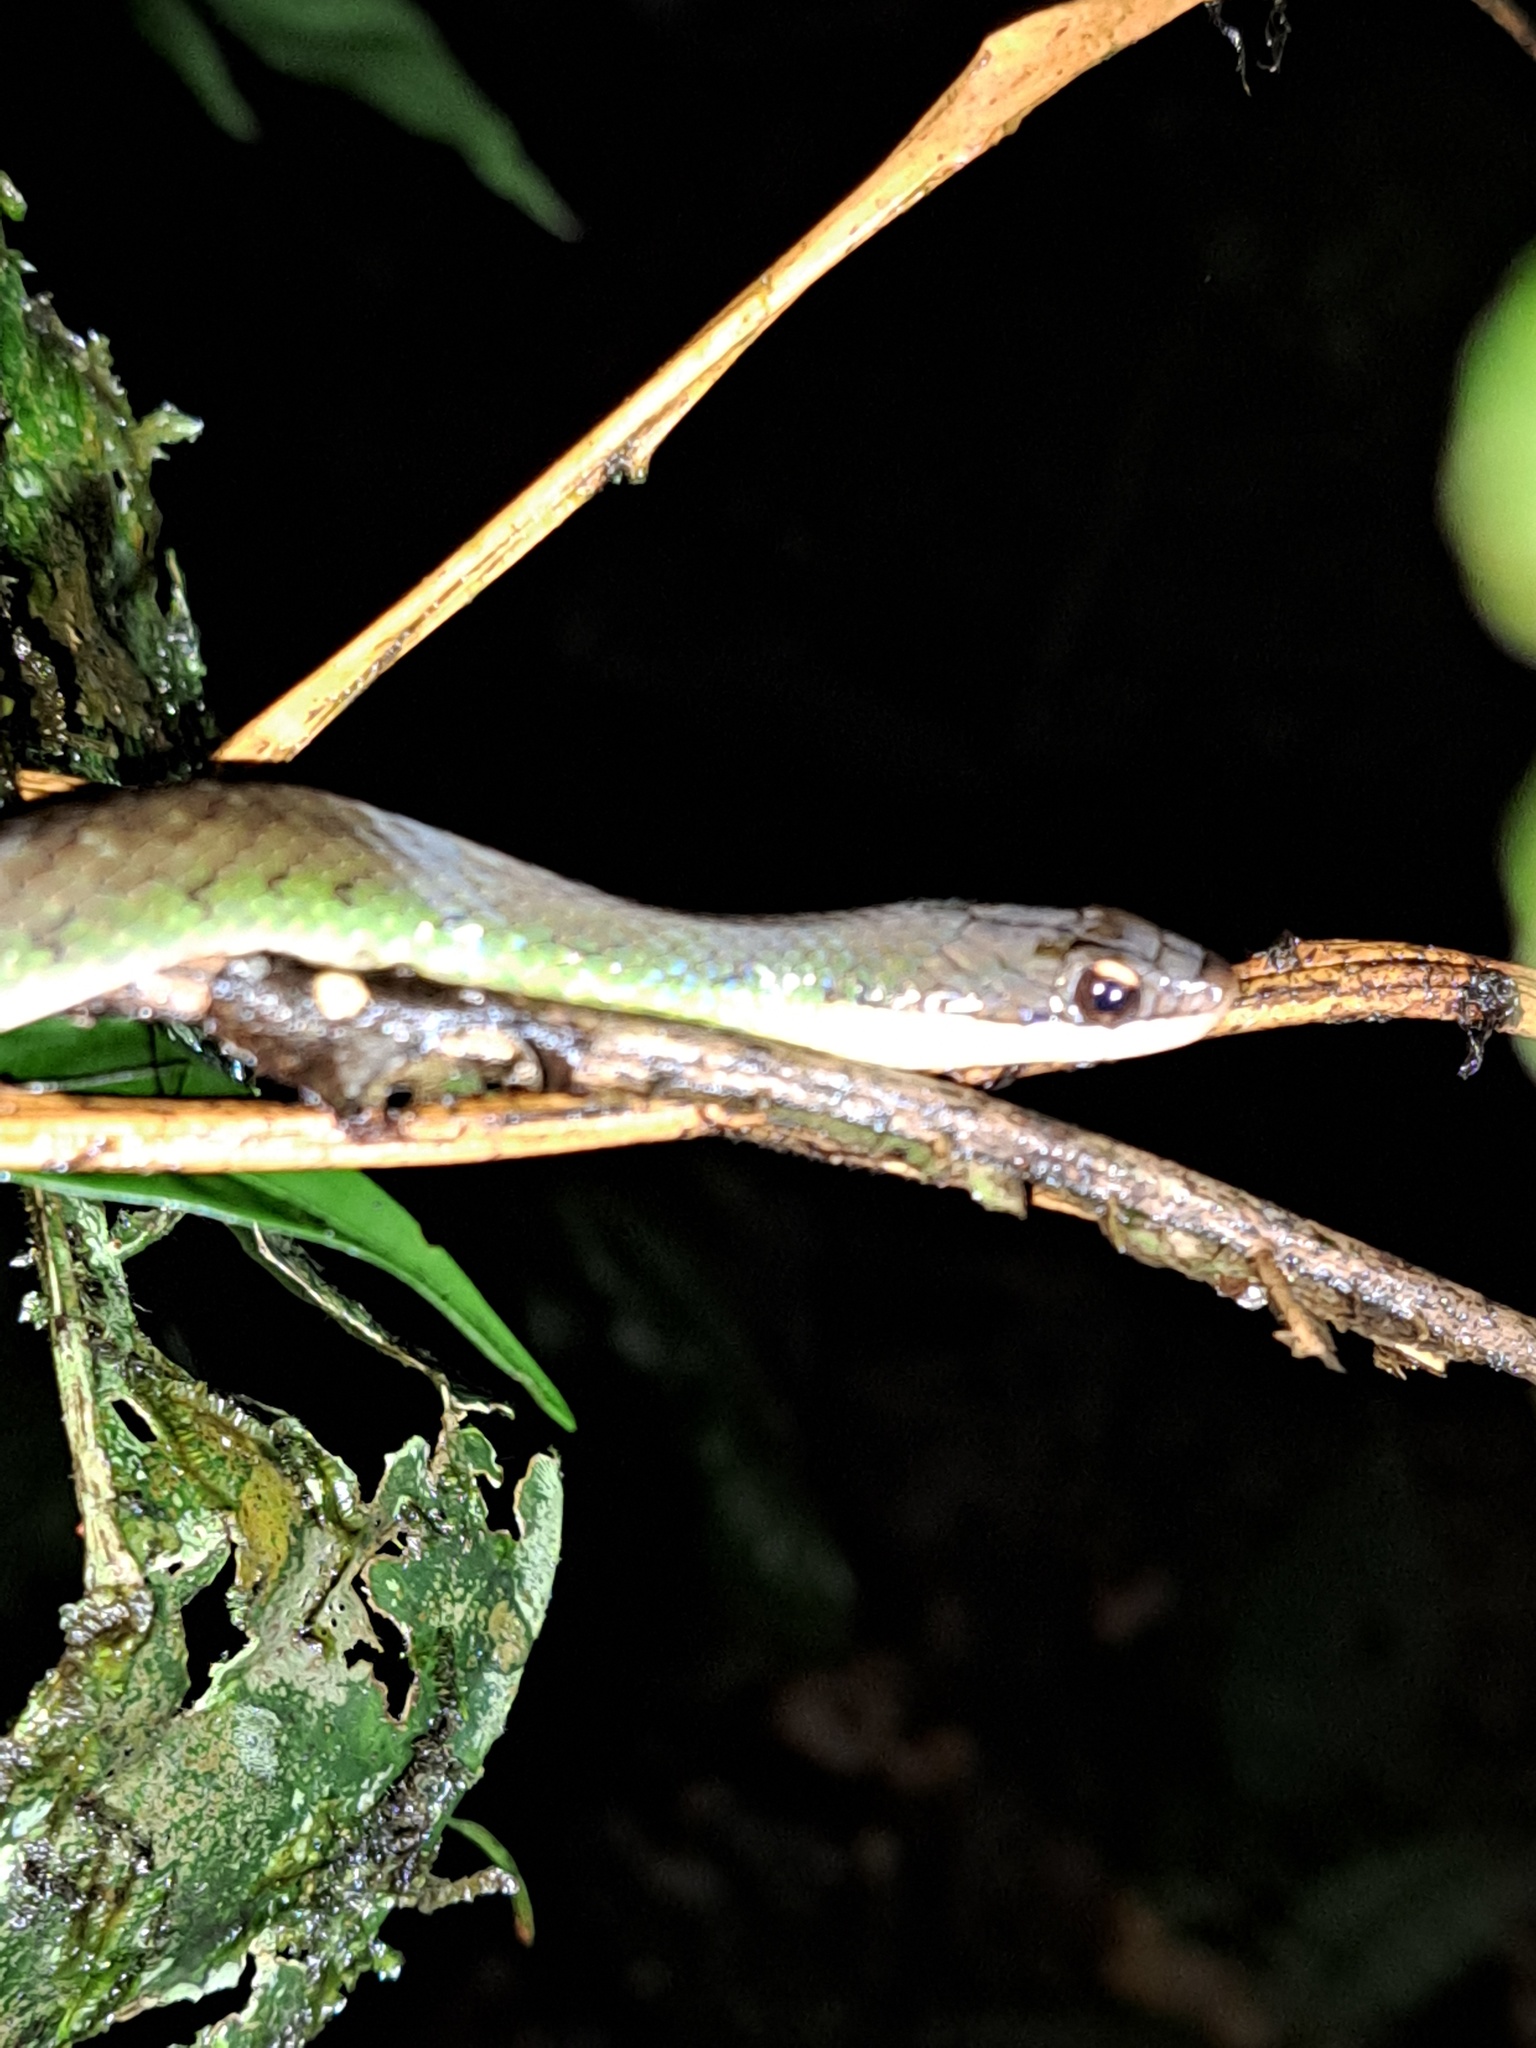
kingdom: Animalia
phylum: Chordata
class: Squamata
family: Colubridae
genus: Erythrolamprus
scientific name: Erythrolamprus reginae
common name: Royal ground snake
